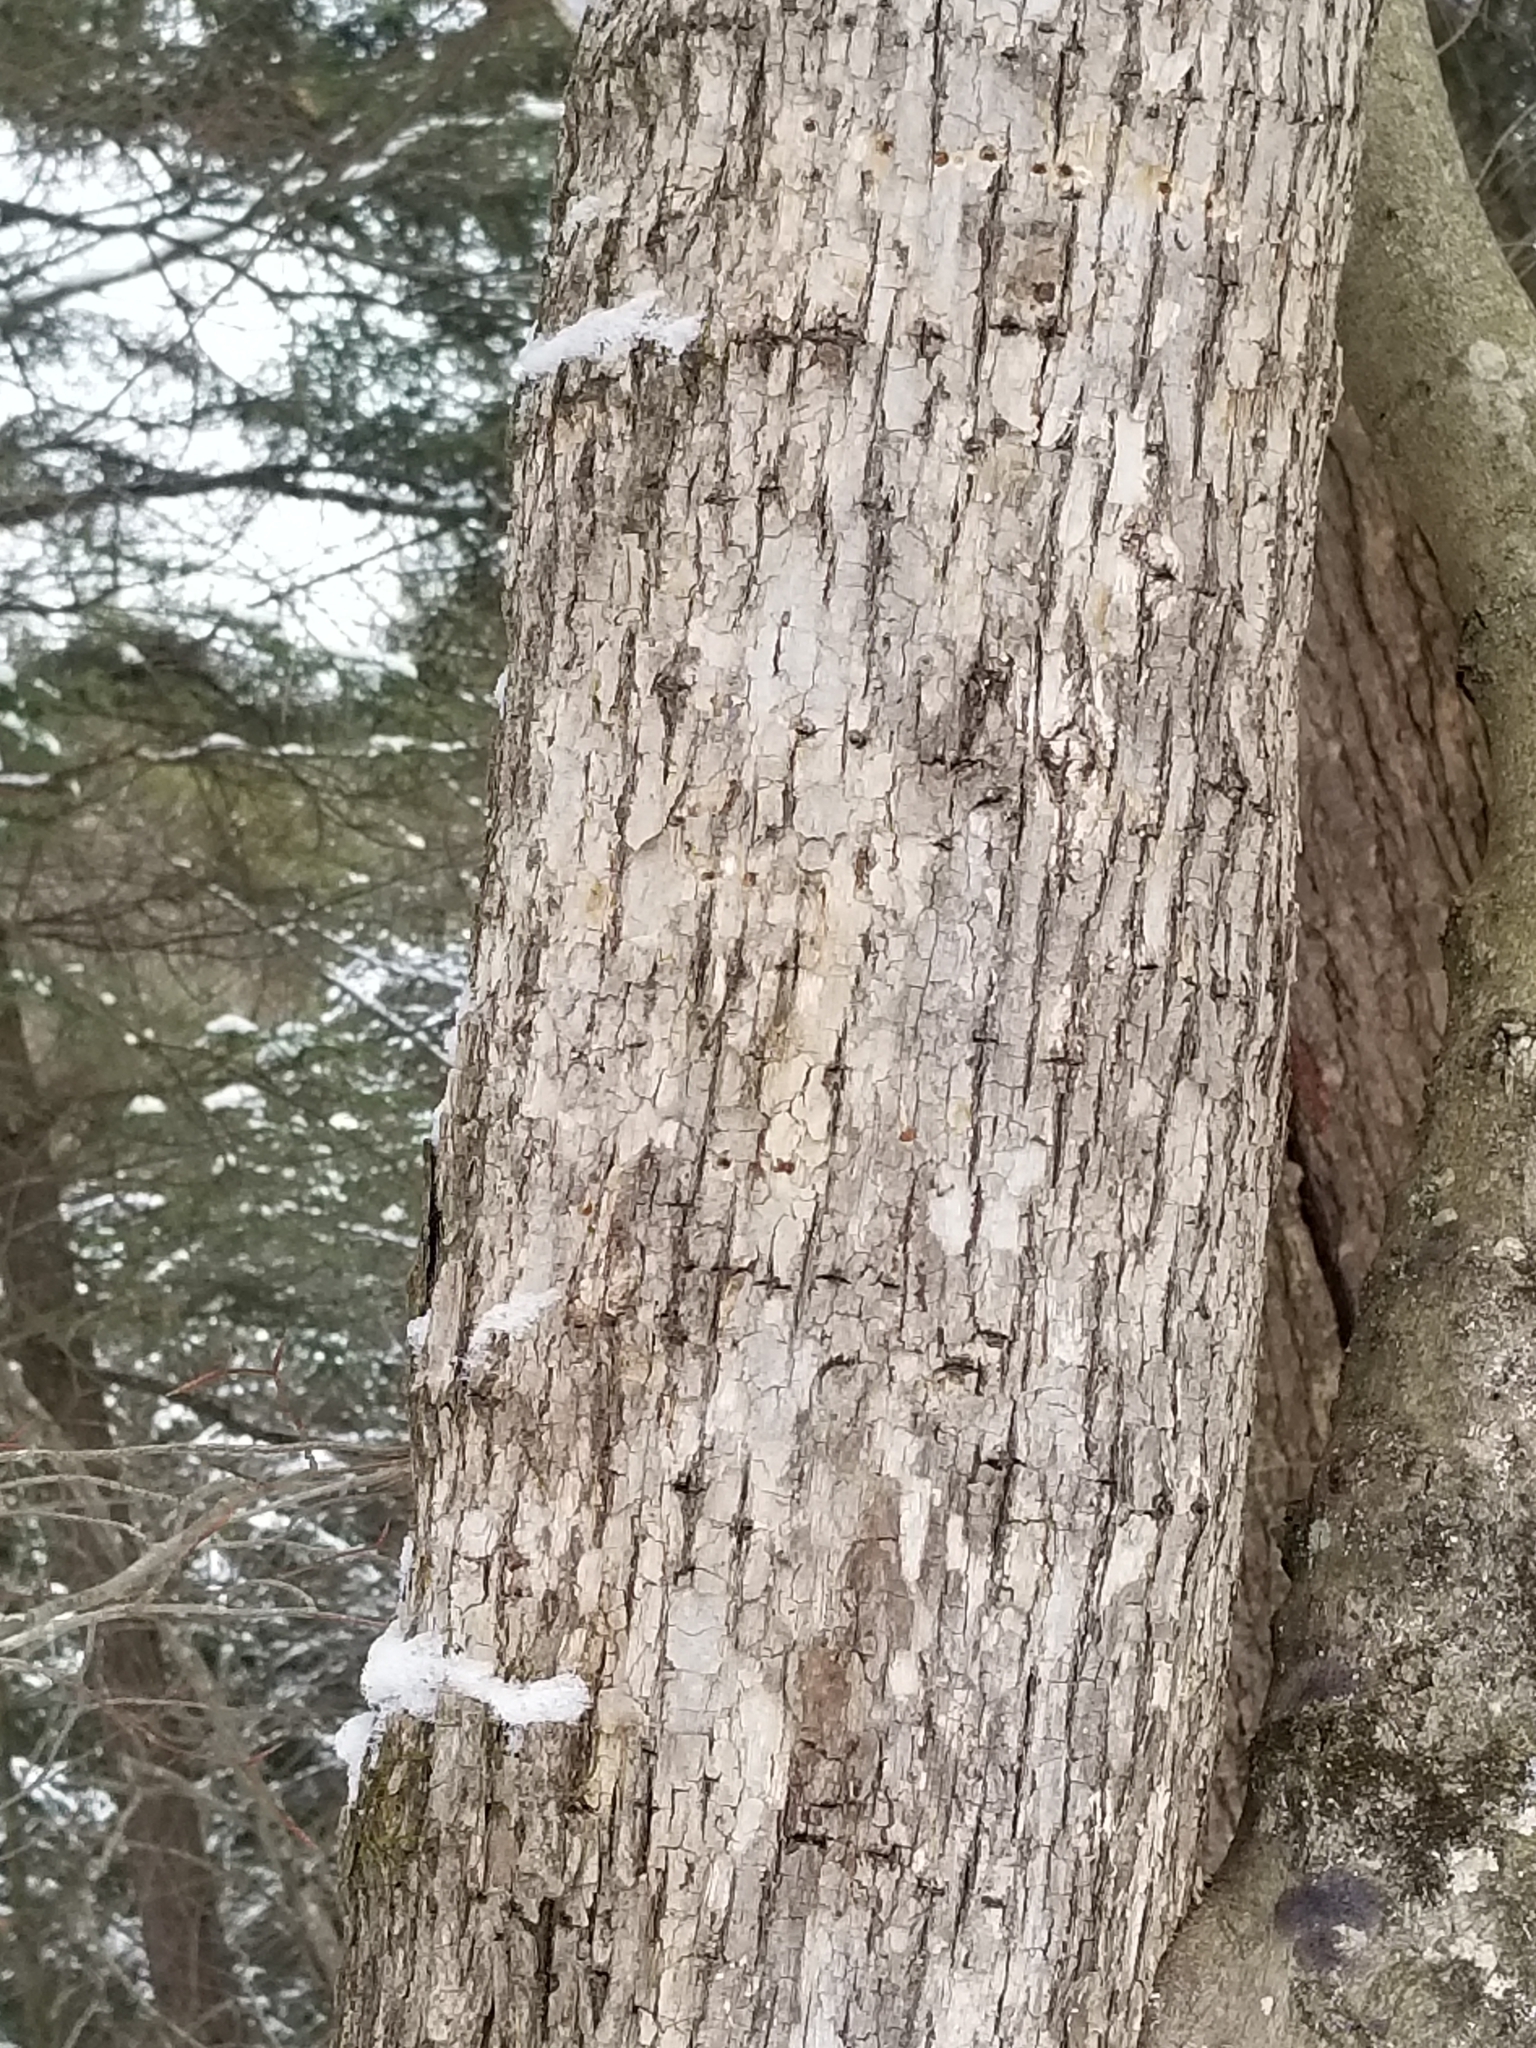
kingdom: Plantae
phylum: Tracheophyta
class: Magnoliopsida
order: Malvales
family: Malvaceae
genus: Tilia
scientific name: Tilia americana
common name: Basswood
